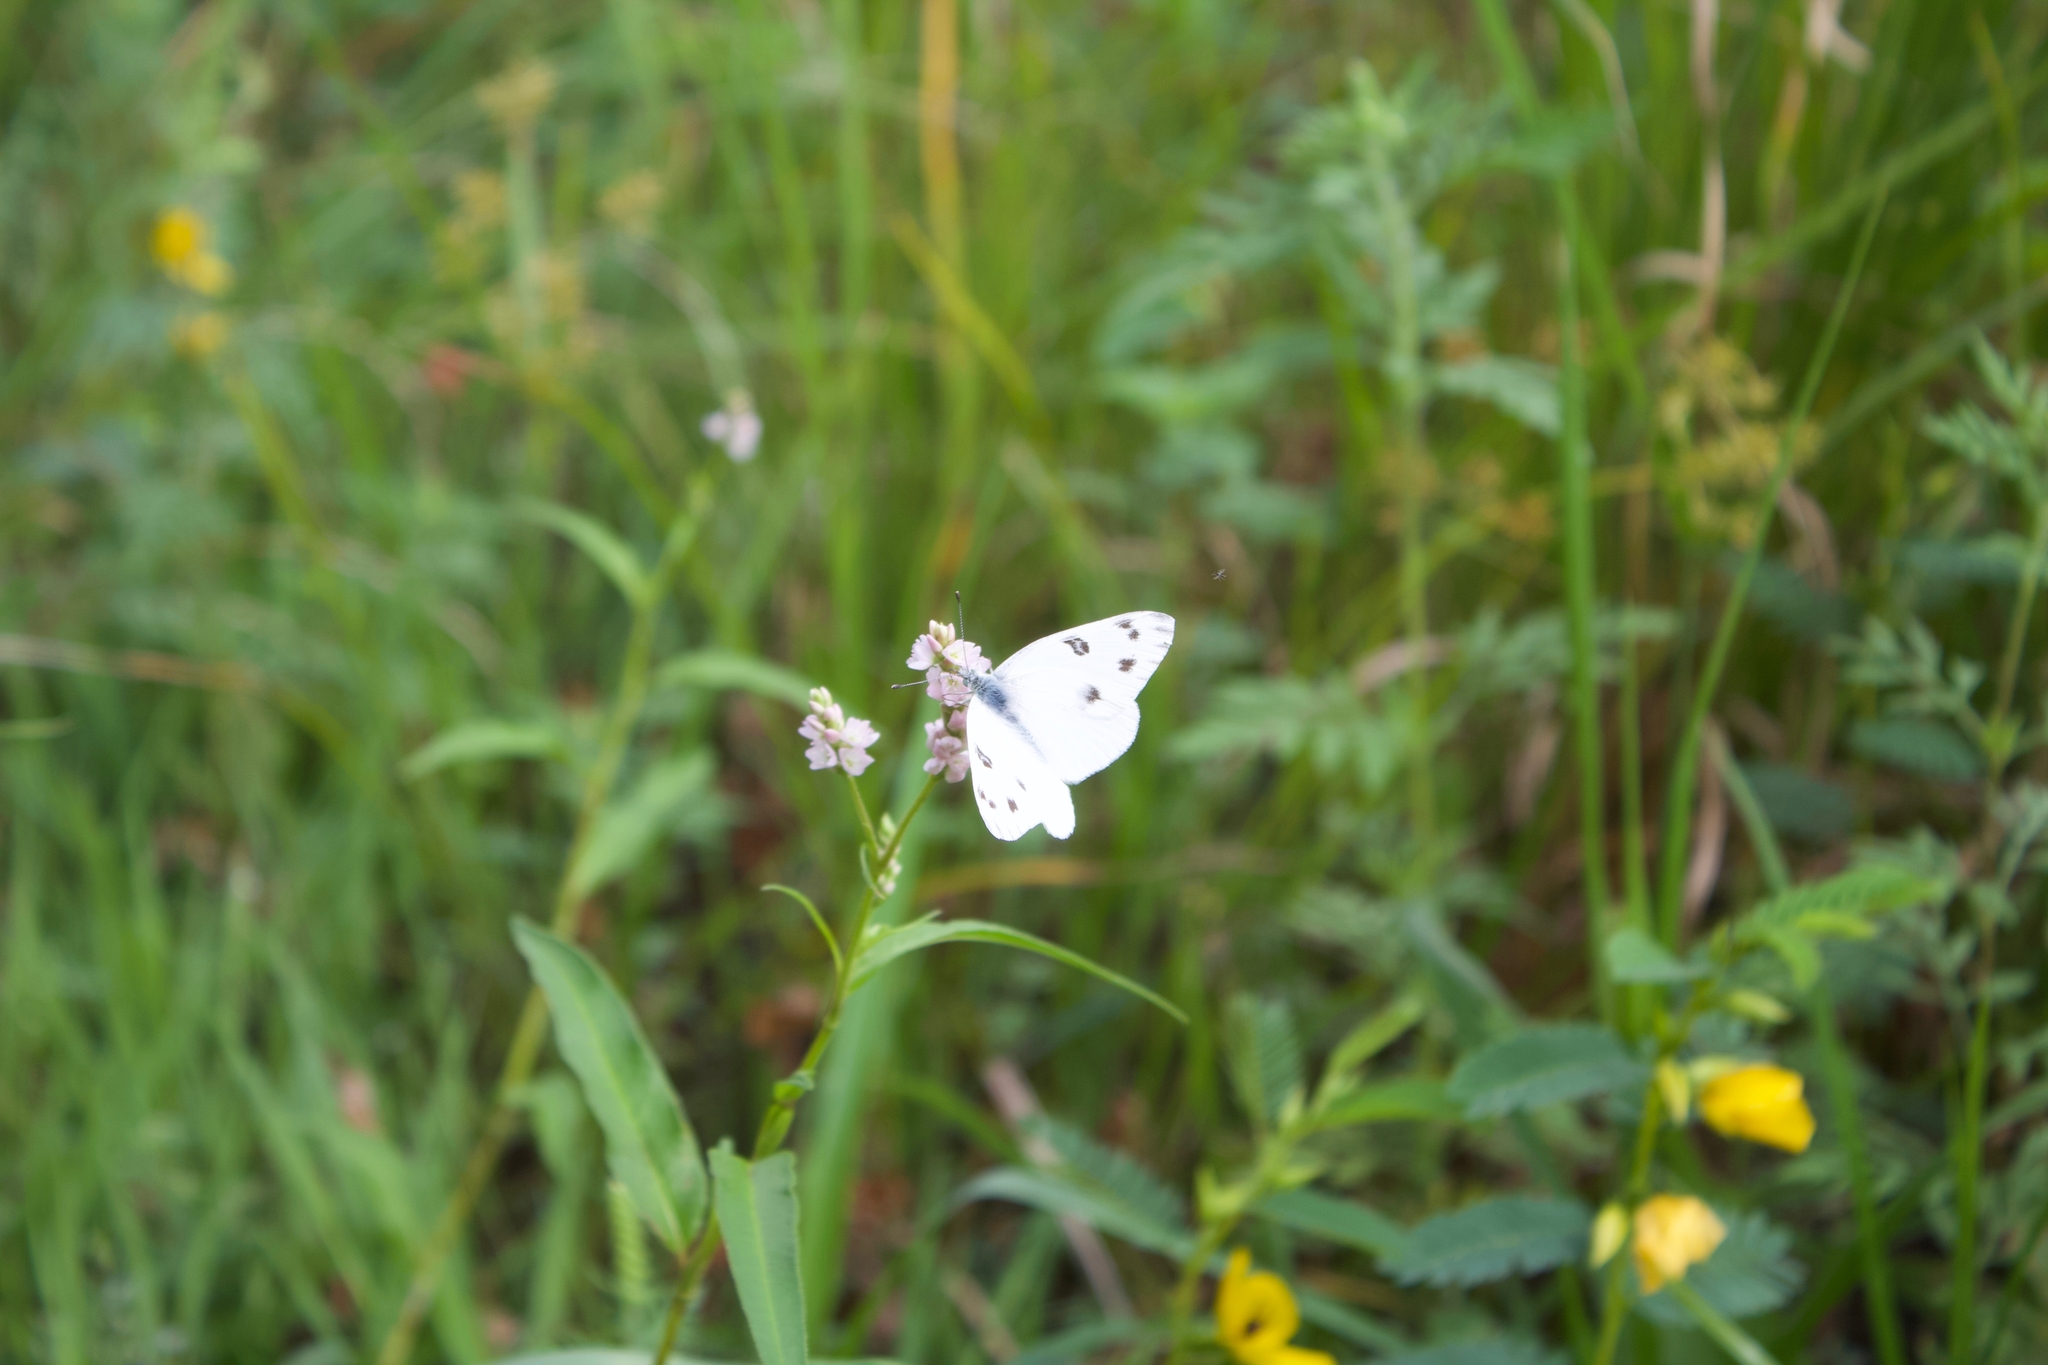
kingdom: Animalia
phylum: Arthropoda
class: Insecta
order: Lepidoptera
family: Pieridae
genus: Pontia
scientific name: Pontia protodice
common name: Checkered white
